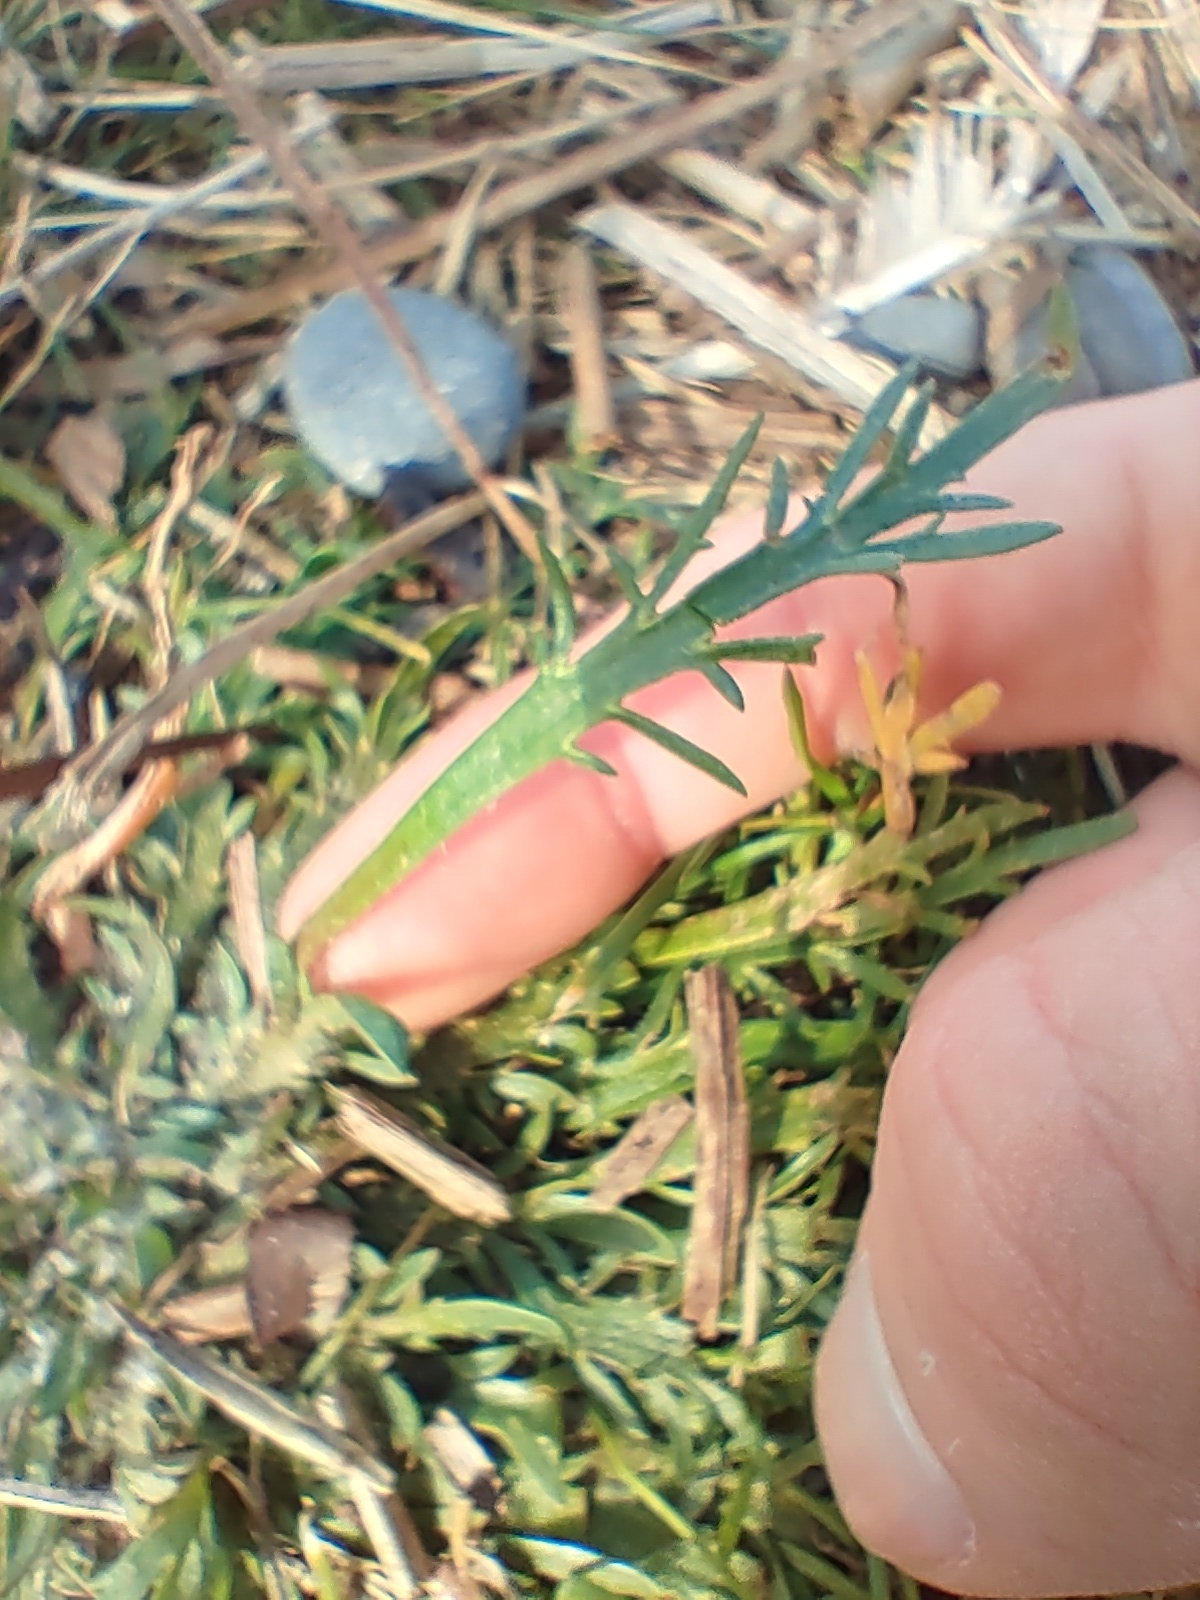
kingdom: Plantae
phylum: Tracheophyta
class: Magnoliopsida
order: Lamiales
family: Plantaginaceae
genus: Plantago
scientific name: Plantago coronopus
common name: Buck's-horn plantain
